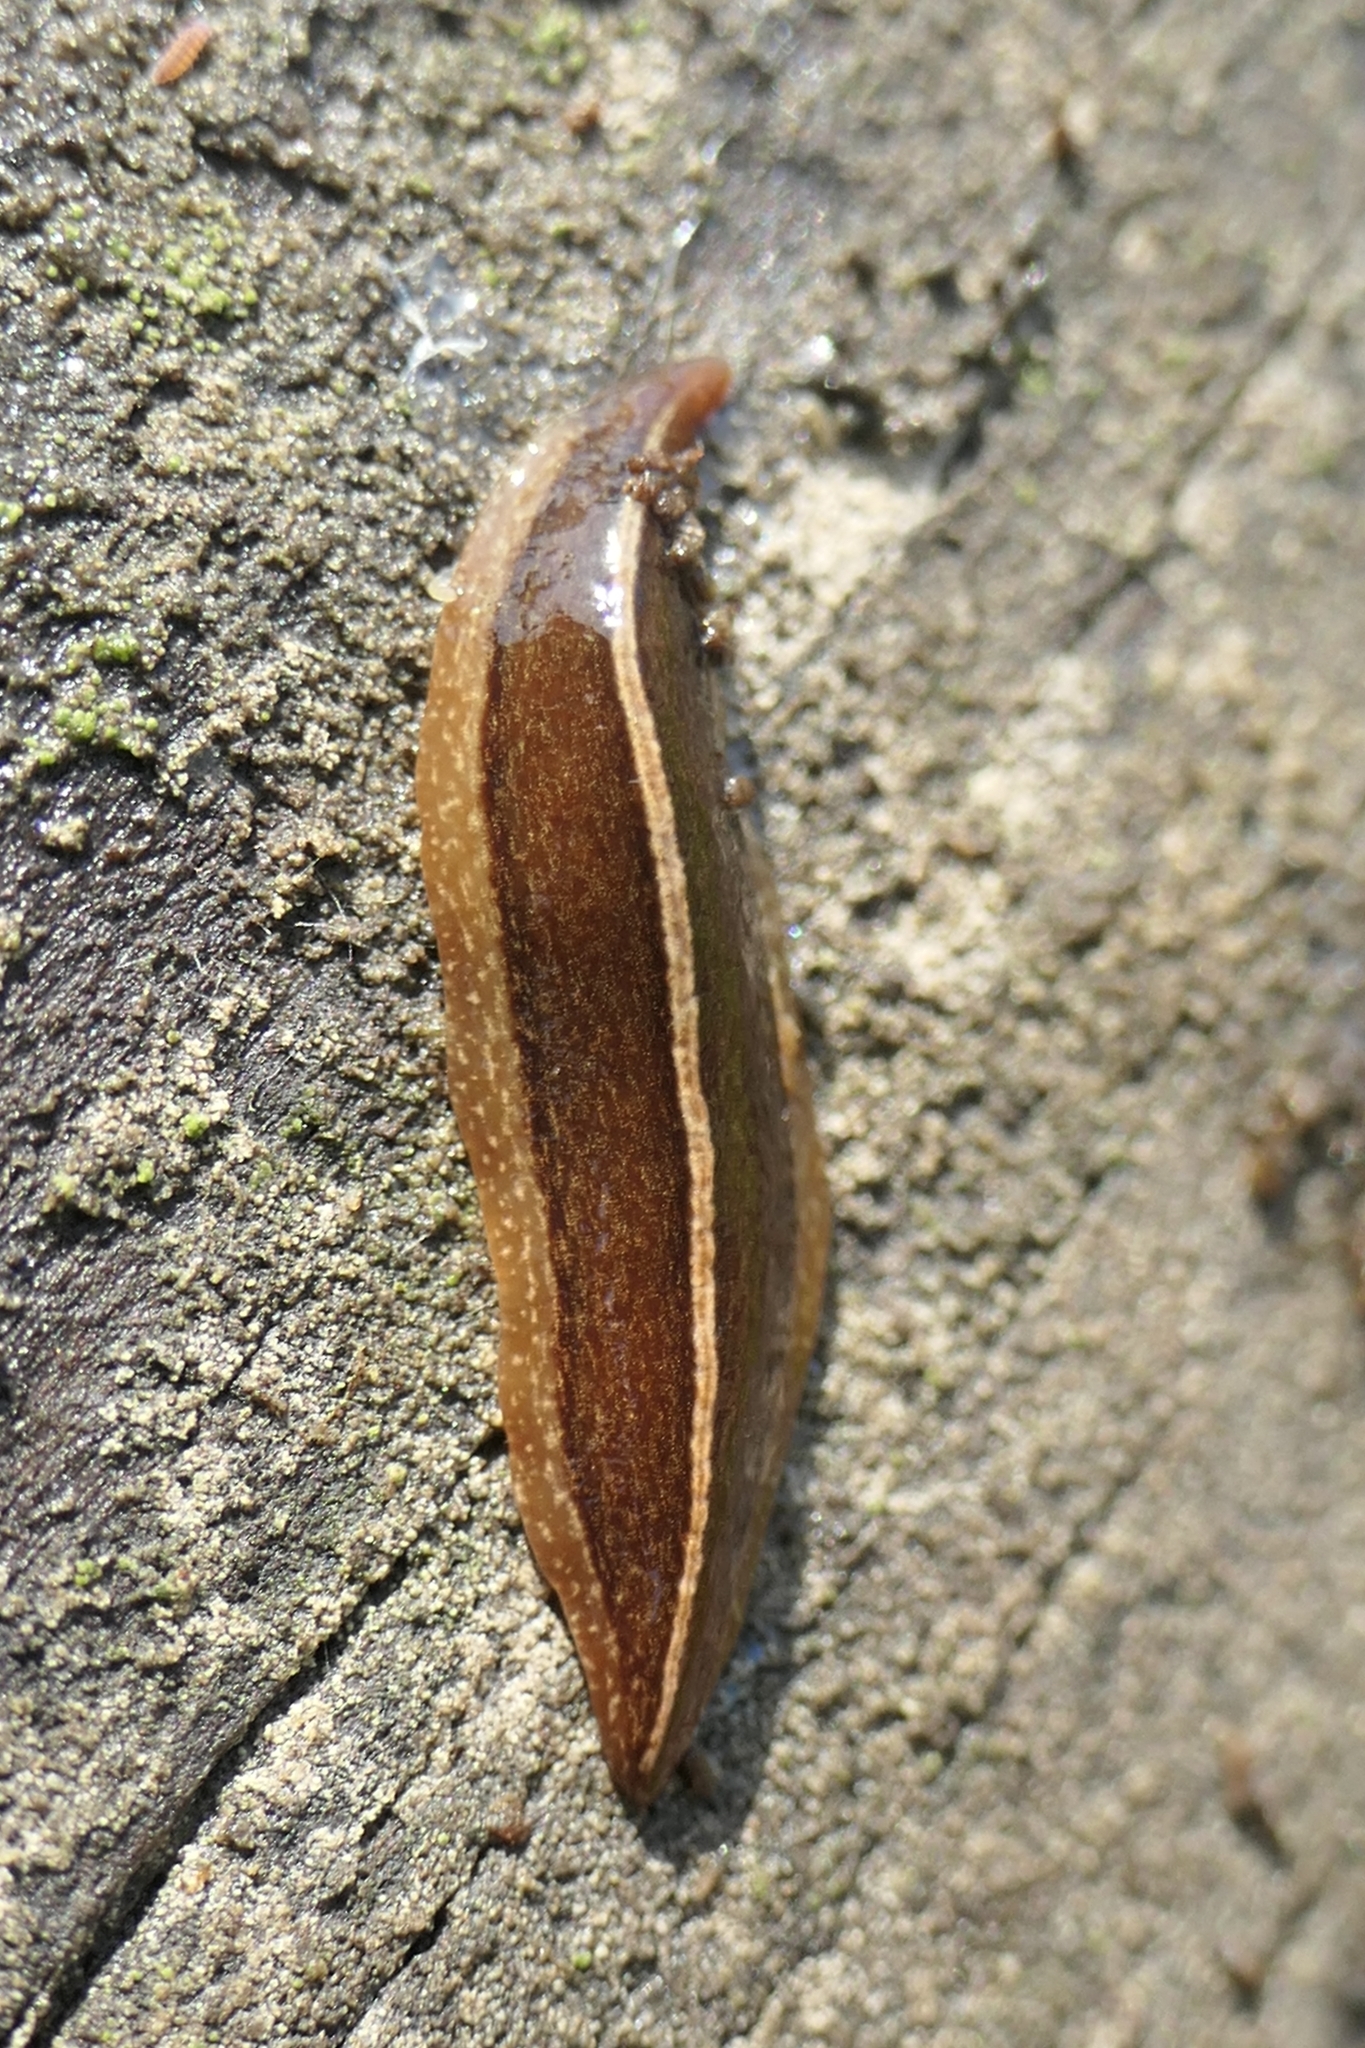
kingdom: Animalia
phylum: Platyhelminthes
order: Tricladida
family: Geoplanidae
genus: Newzealandia
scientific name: Newzealandia graffii
